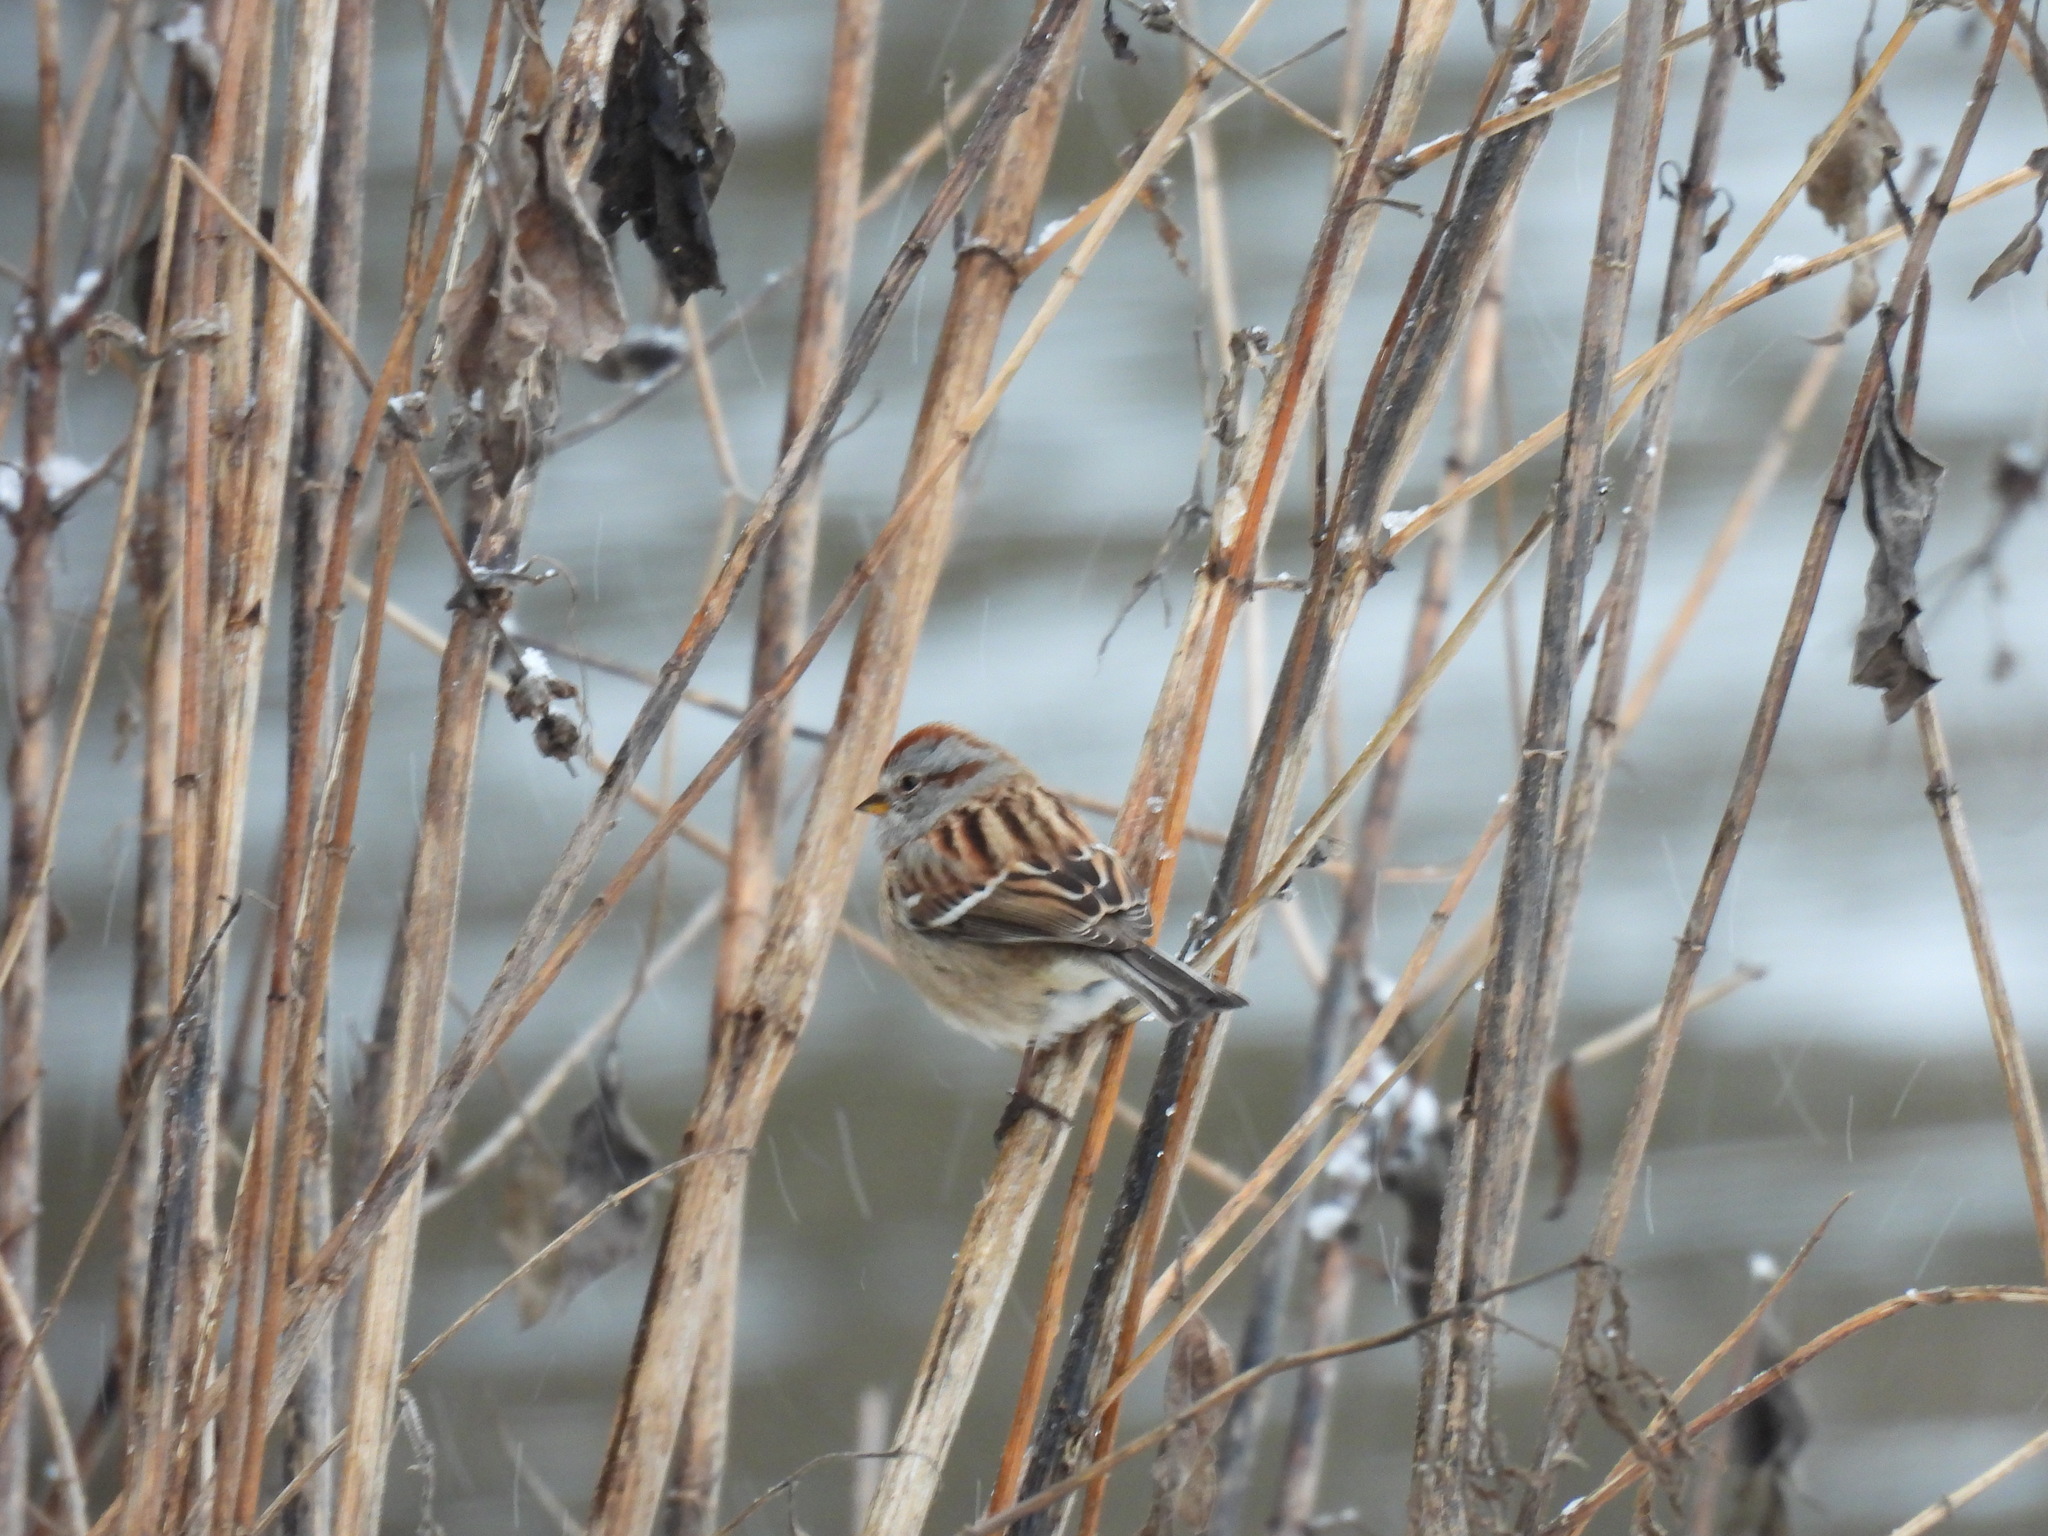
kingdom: Animalia
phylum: Chordata
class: Aves
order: Passeriformes
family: Passerellidae
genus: Spizelloides
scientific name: Spizelloides arborea
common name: American tree sparrow
